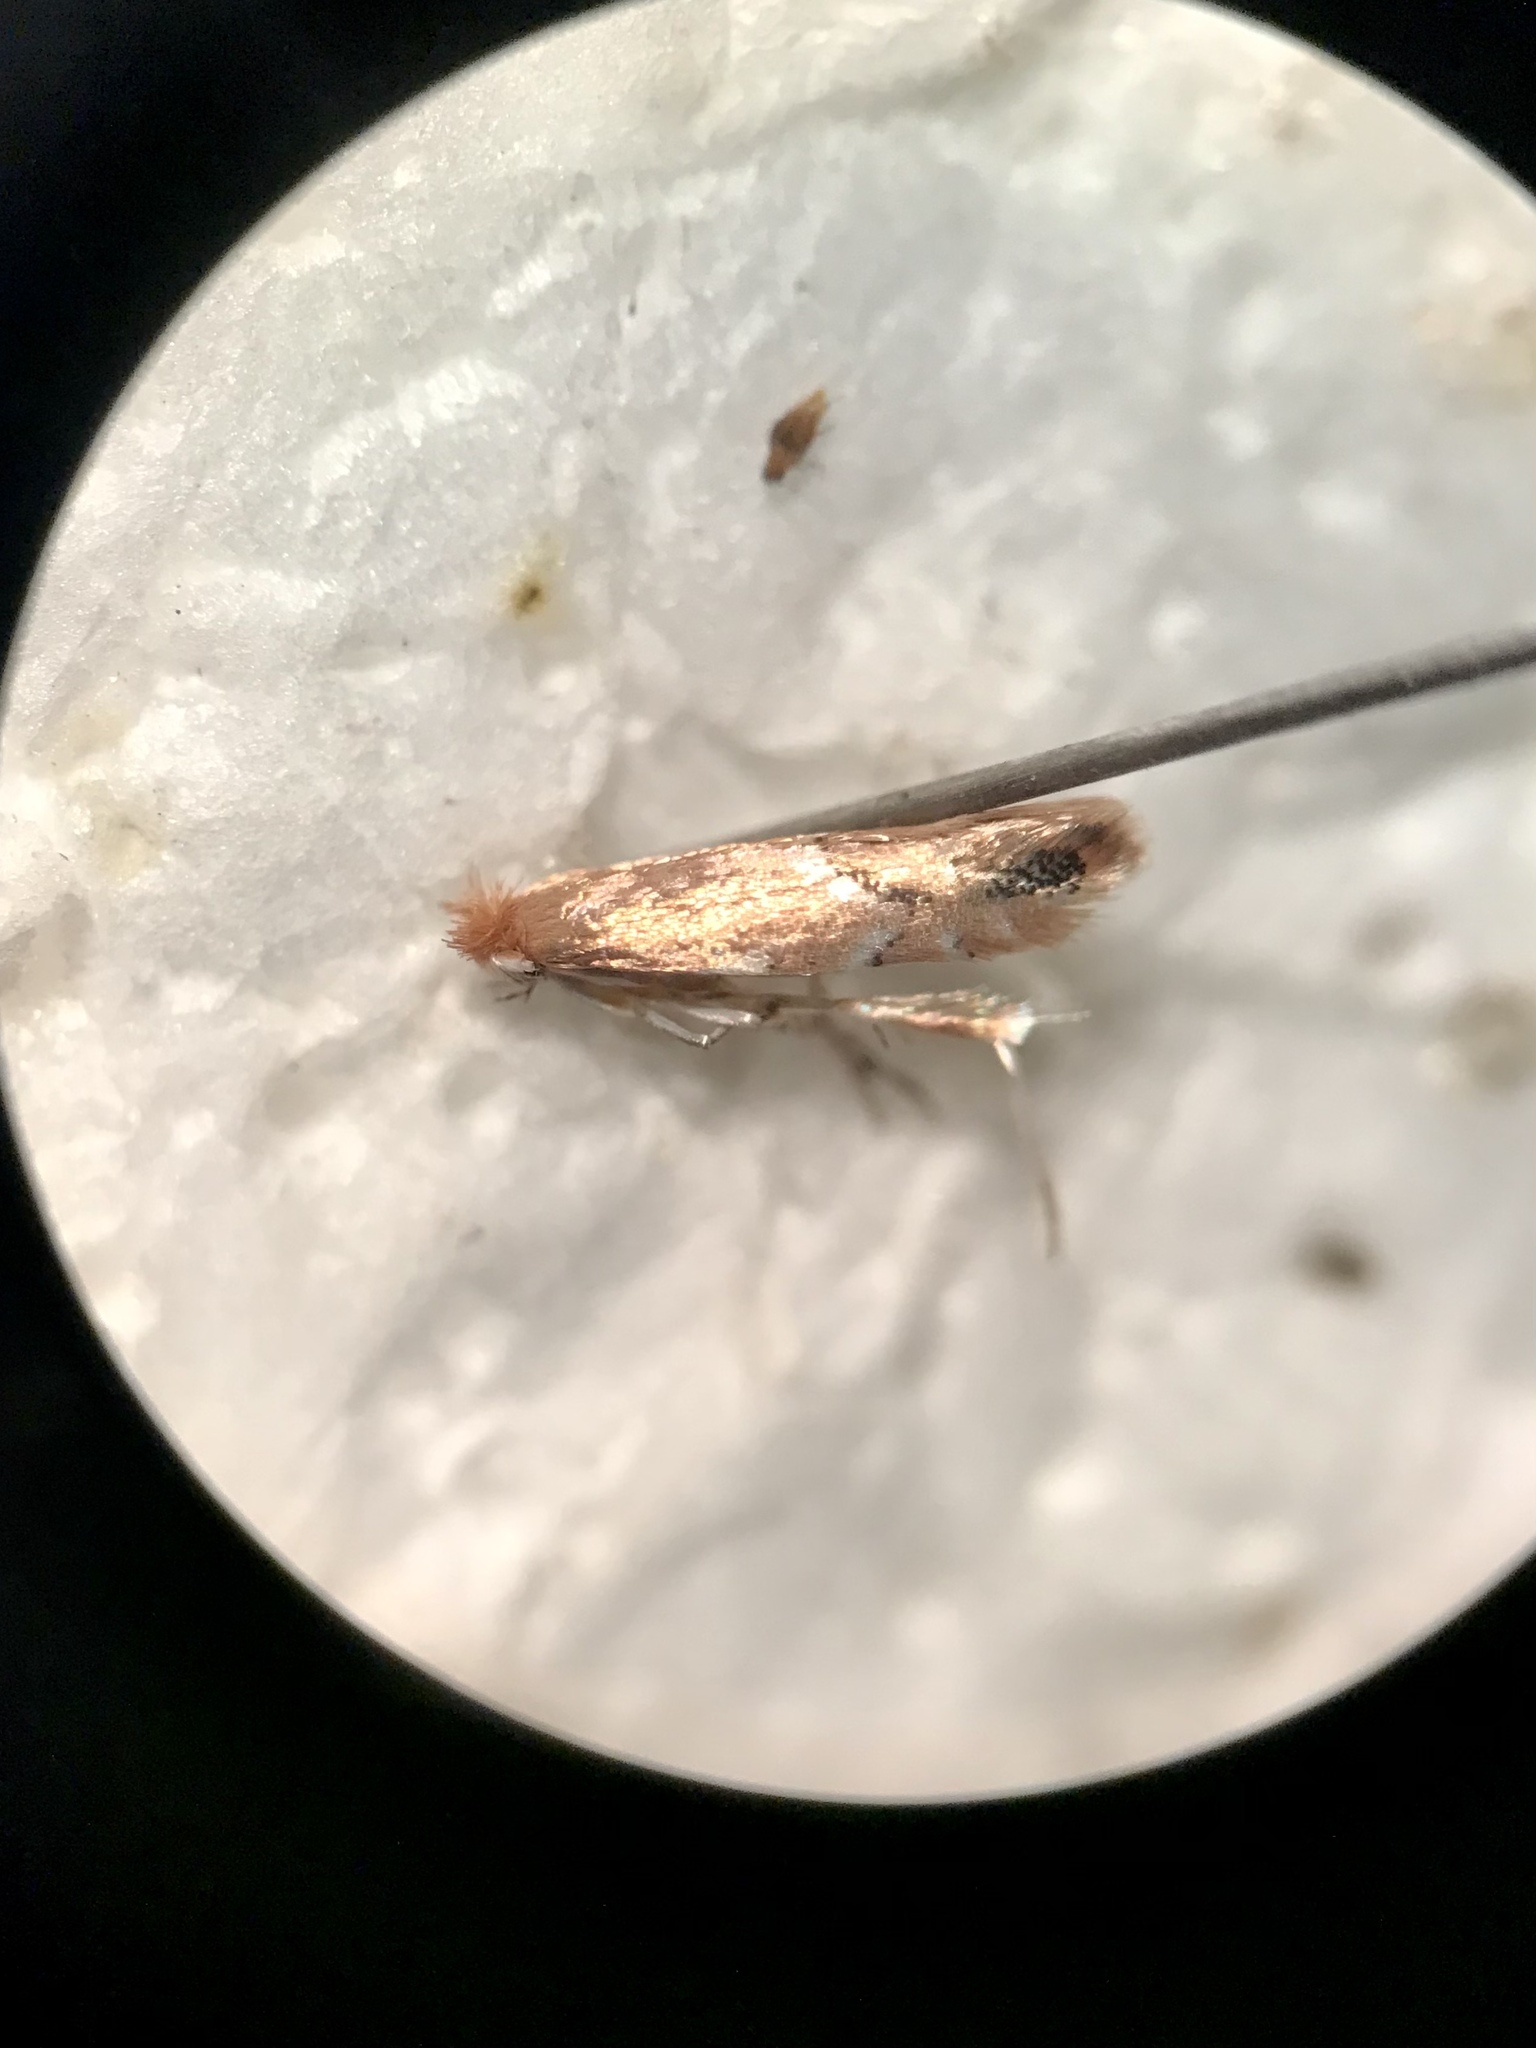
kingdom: Animalia
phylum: Arthropoda
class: Insecta
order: Lepidoptera
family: Gracillariidae
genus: Cameraria
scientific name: Cameraria platanoidiella
